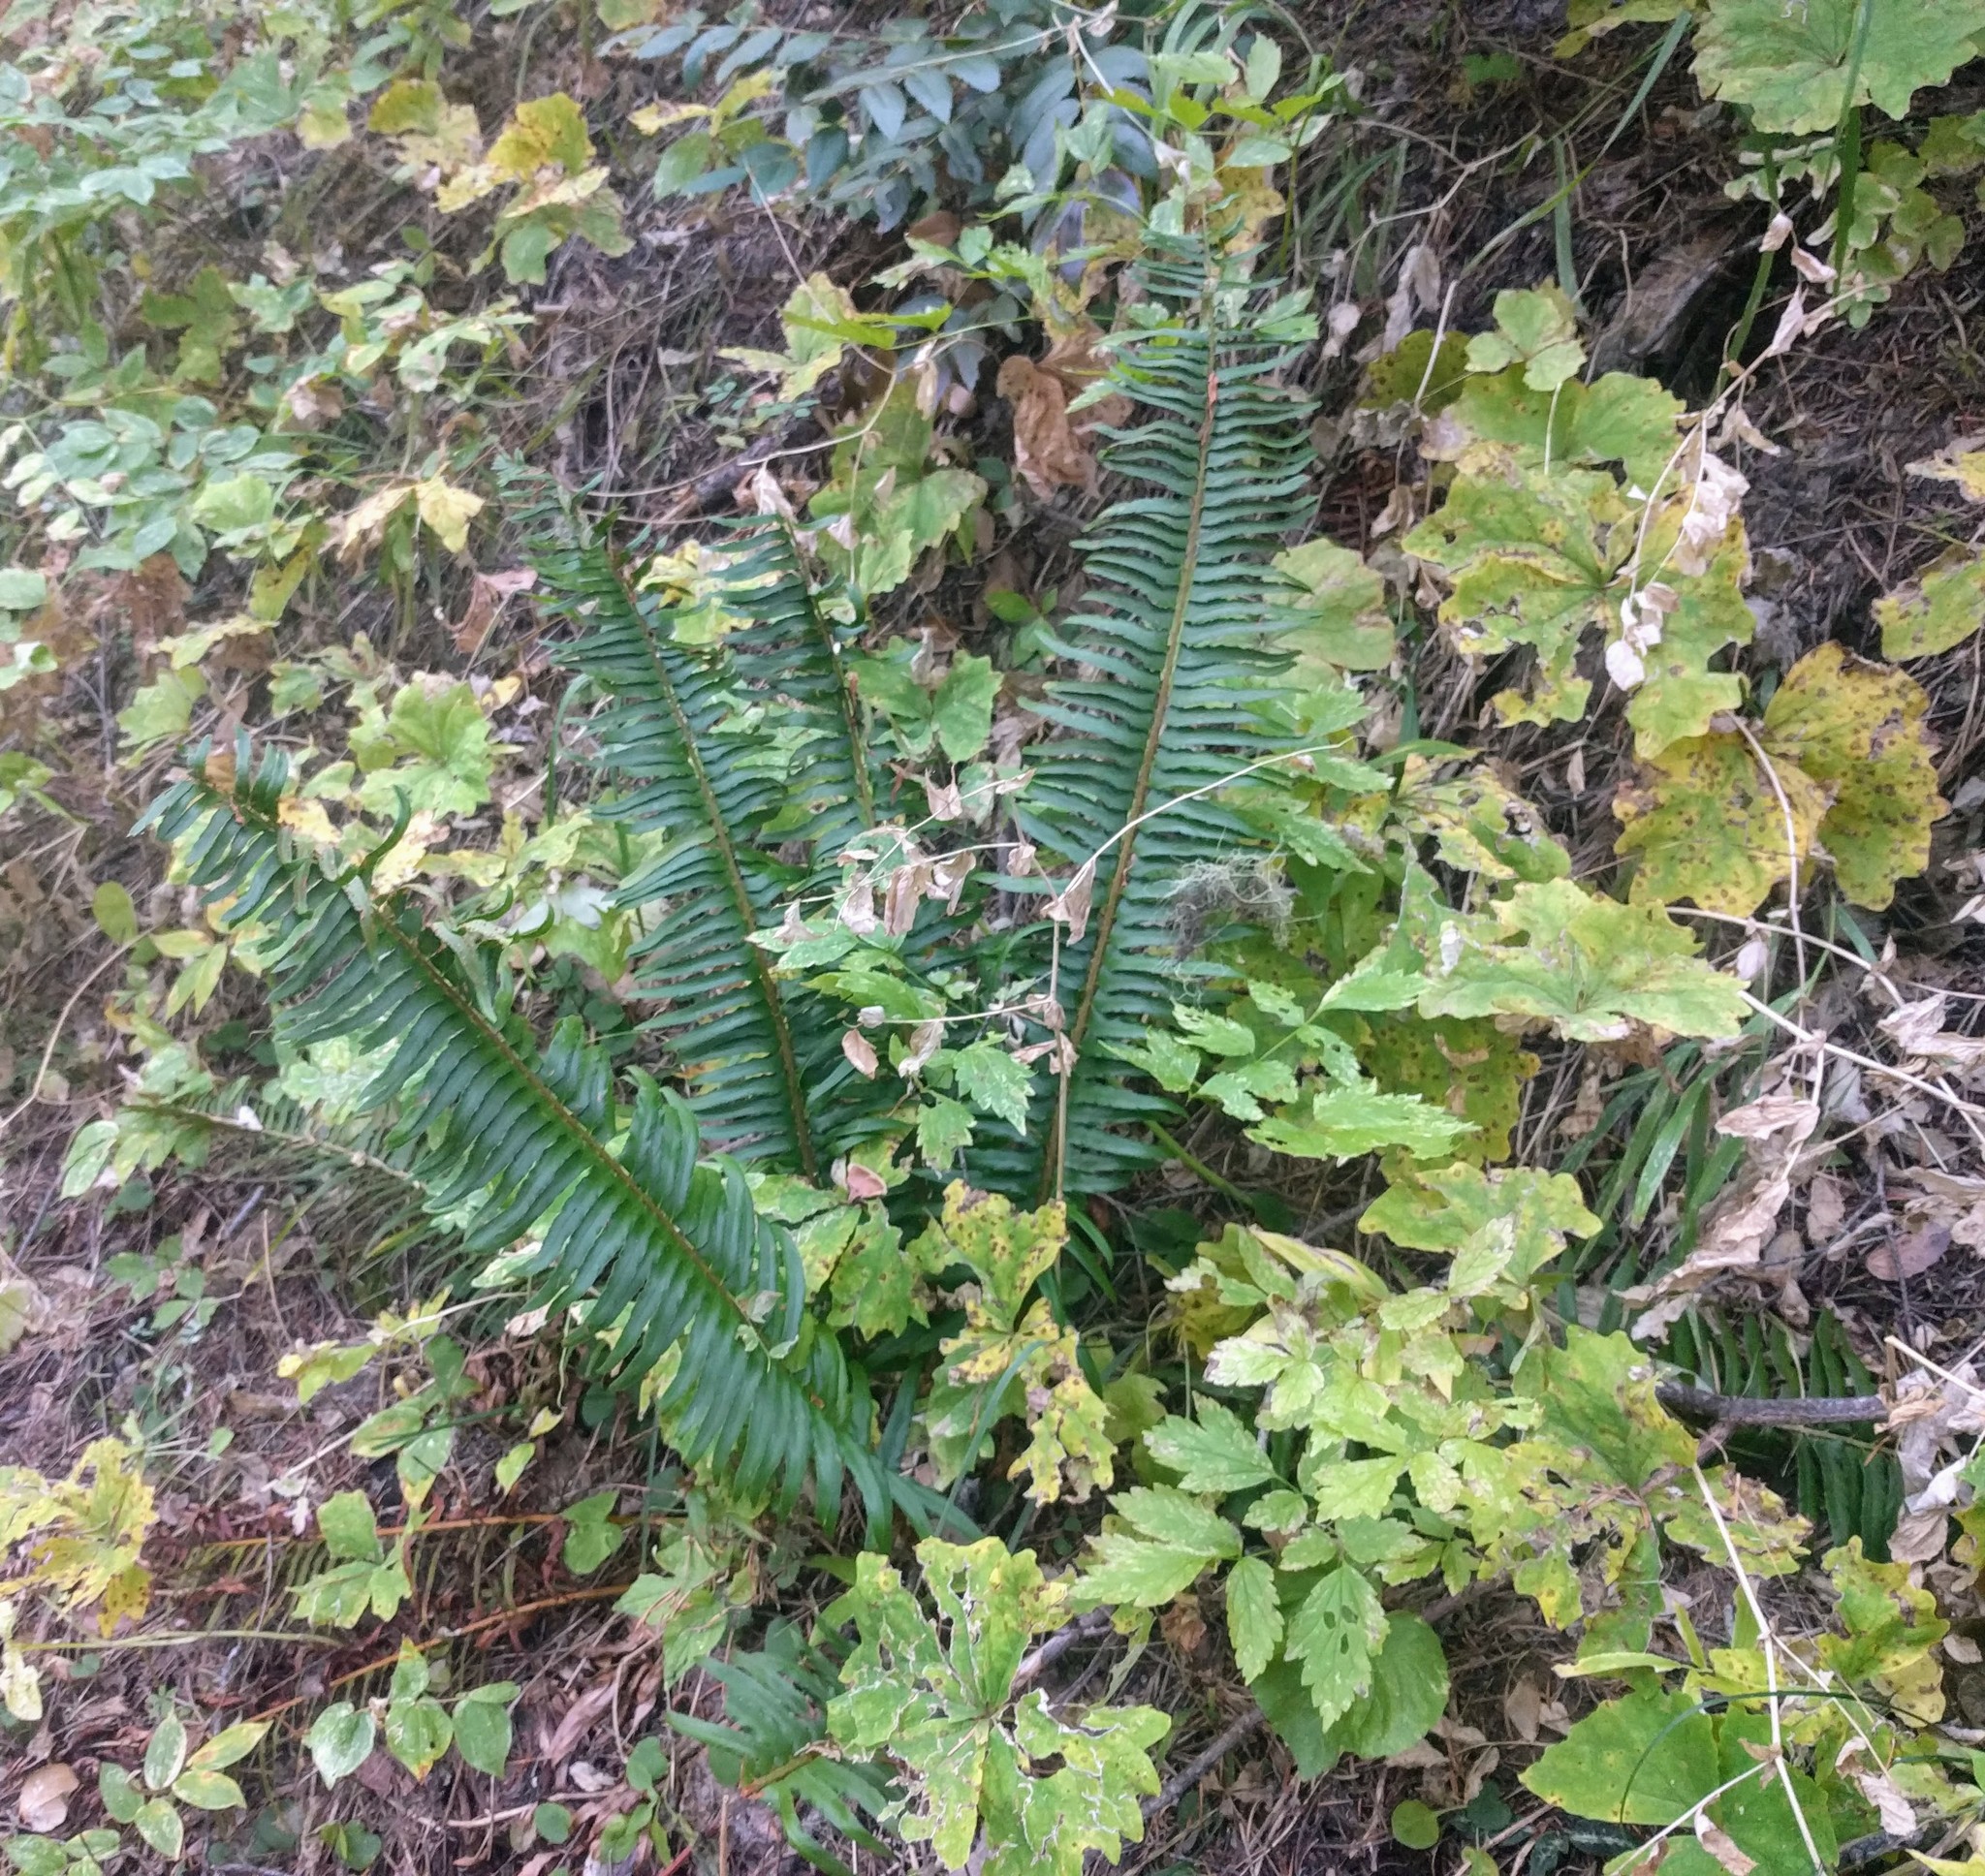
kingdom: Plantae
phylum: Tracheophyta
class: Polypodiopsida
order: Polypodiales
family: Dryopteridaceae
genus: Polystichum
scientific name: Polystichum munitum
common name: Western sword-fern
